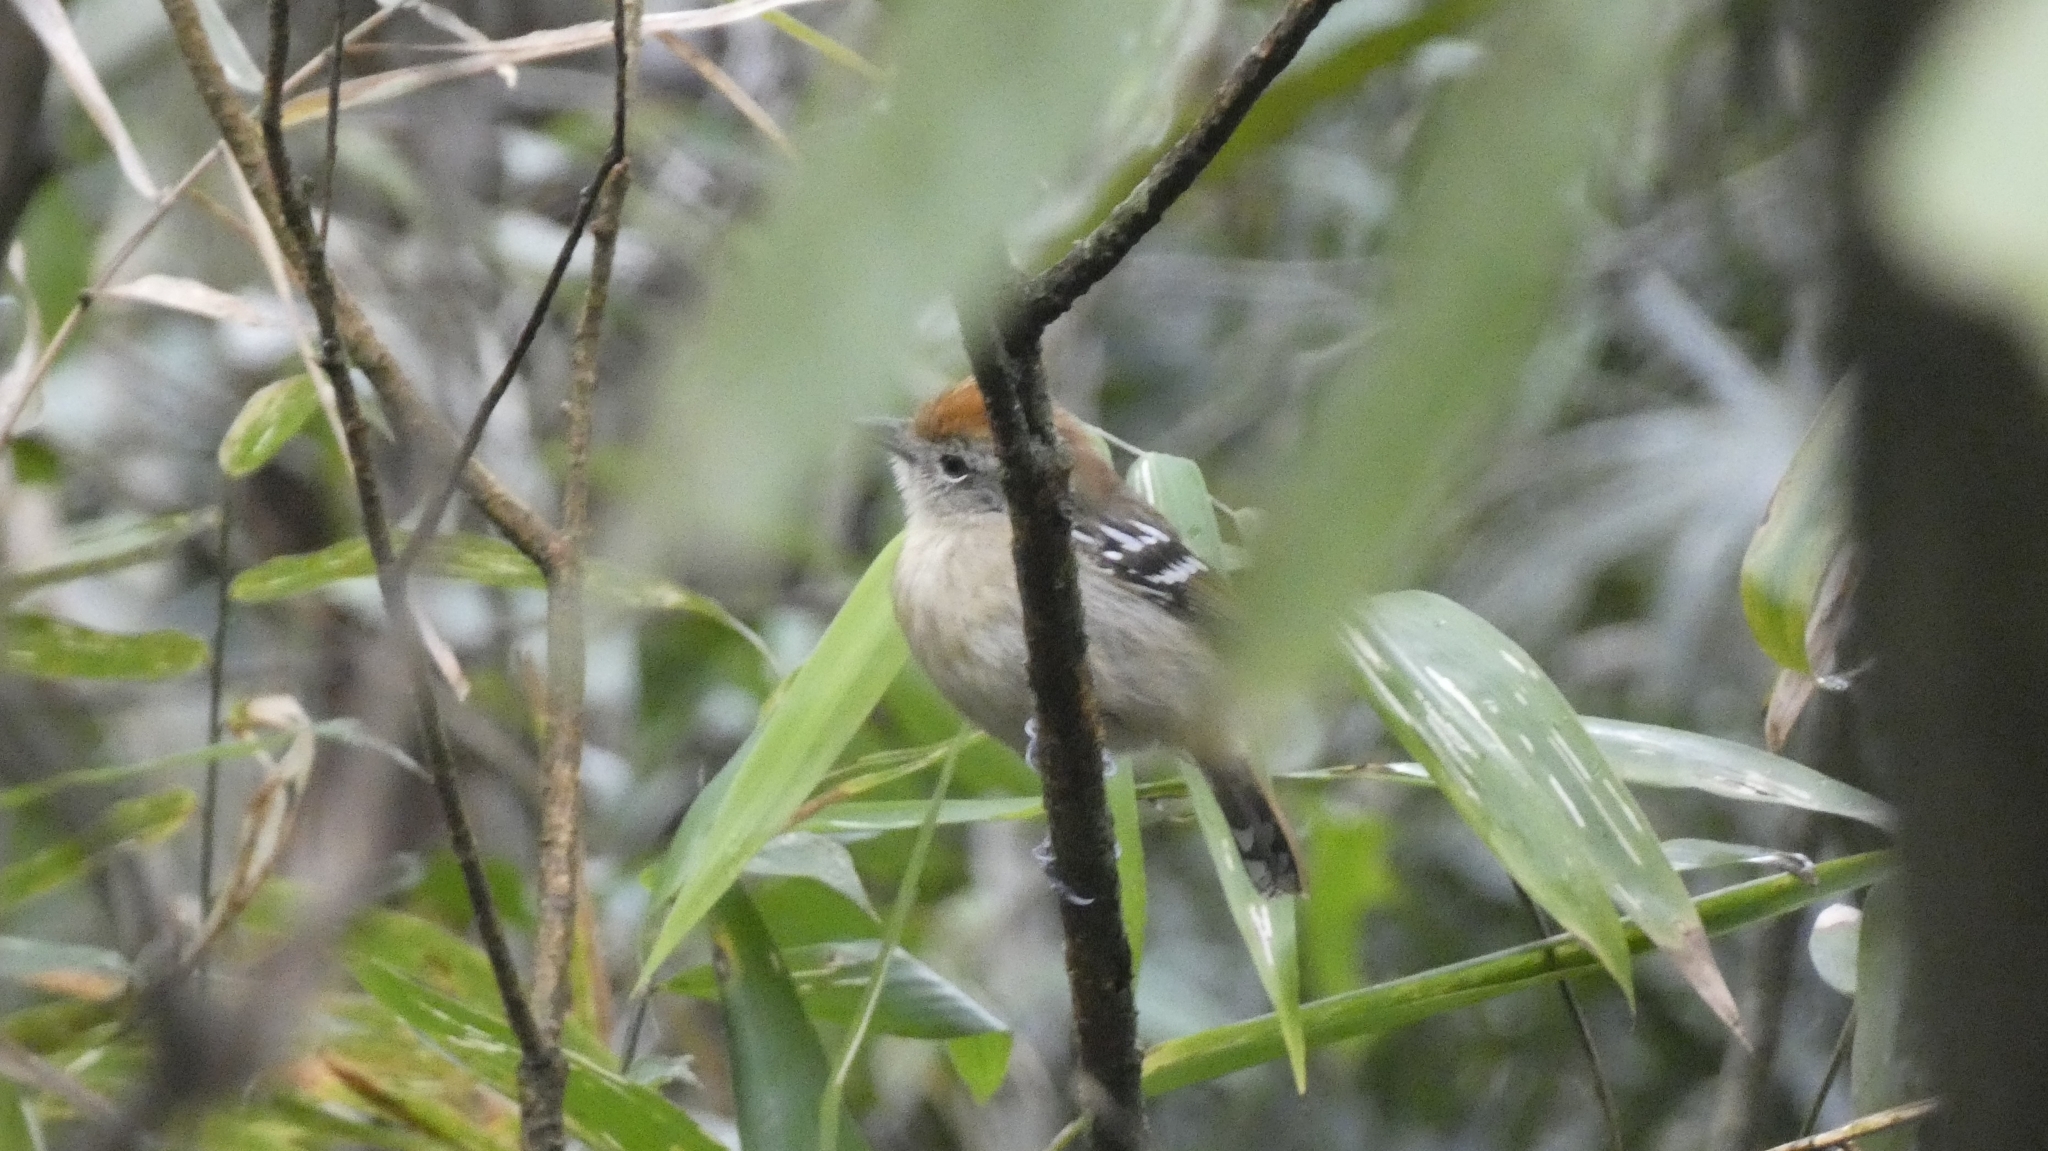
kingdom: Animalia
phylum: Chordata
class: Aves
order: Passeriformes
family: Thamnophilidae
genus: Thamnophilus
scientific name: Thamnophilus ambiguus
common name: Sooretama slaty antshrike
